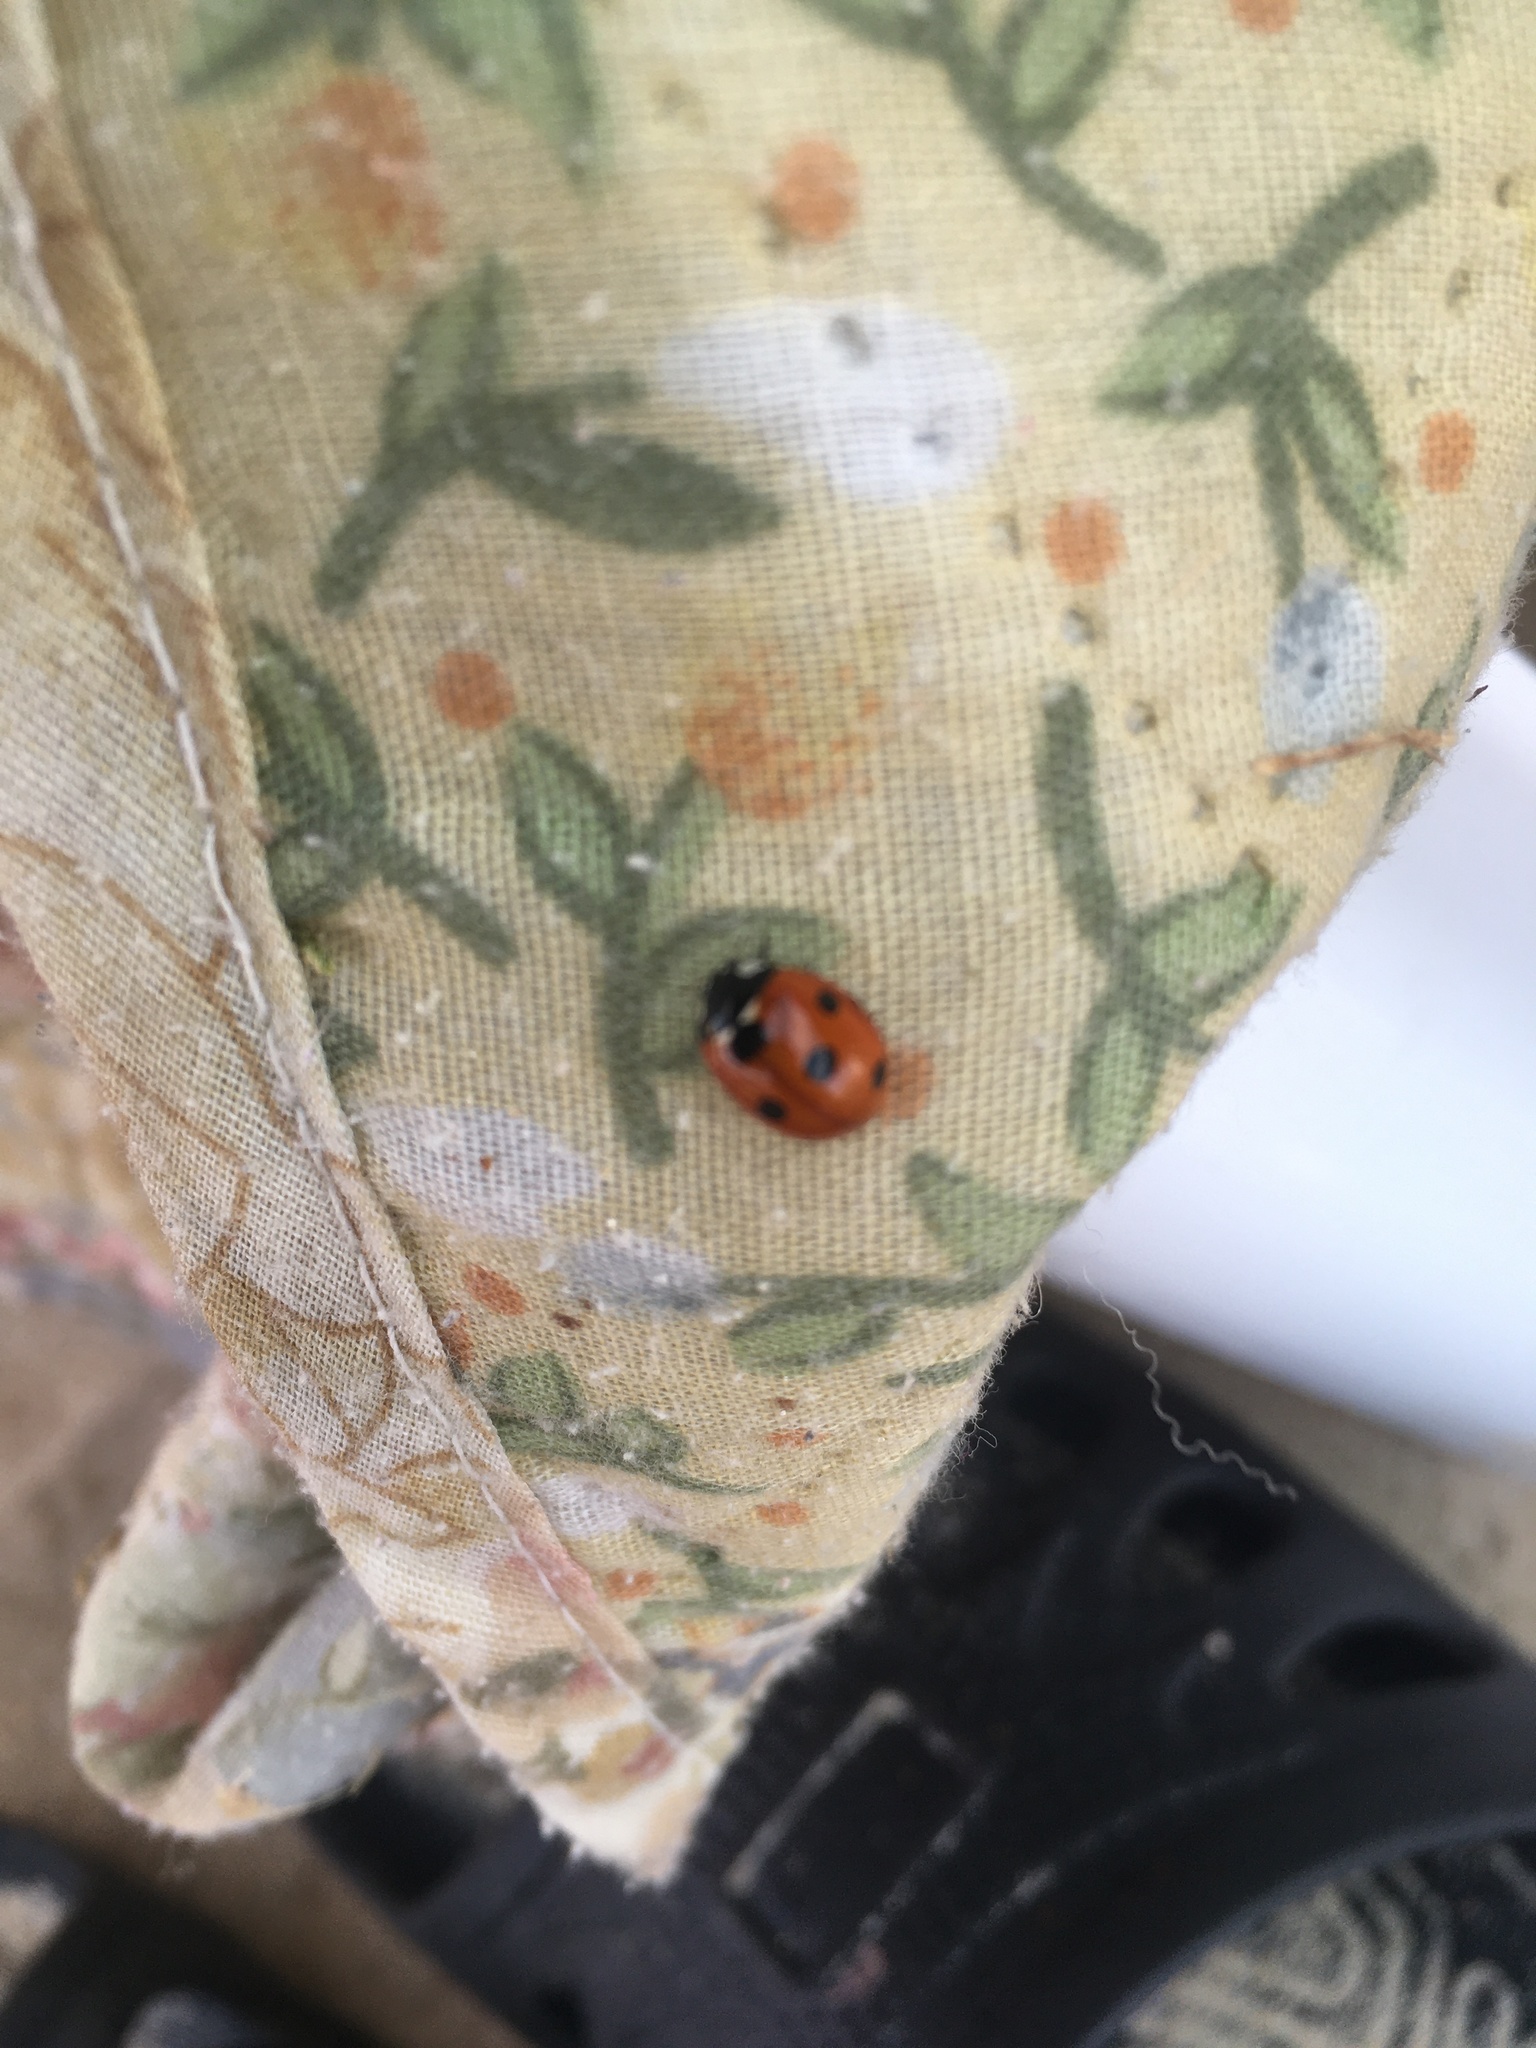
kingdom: Animalia
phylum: Arthropoda
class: Insecta
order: Coleoptera
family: Coccinellidae
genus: Coccinella
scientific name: Coccinella septempunctata
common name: Sevenspotted lady beetle
